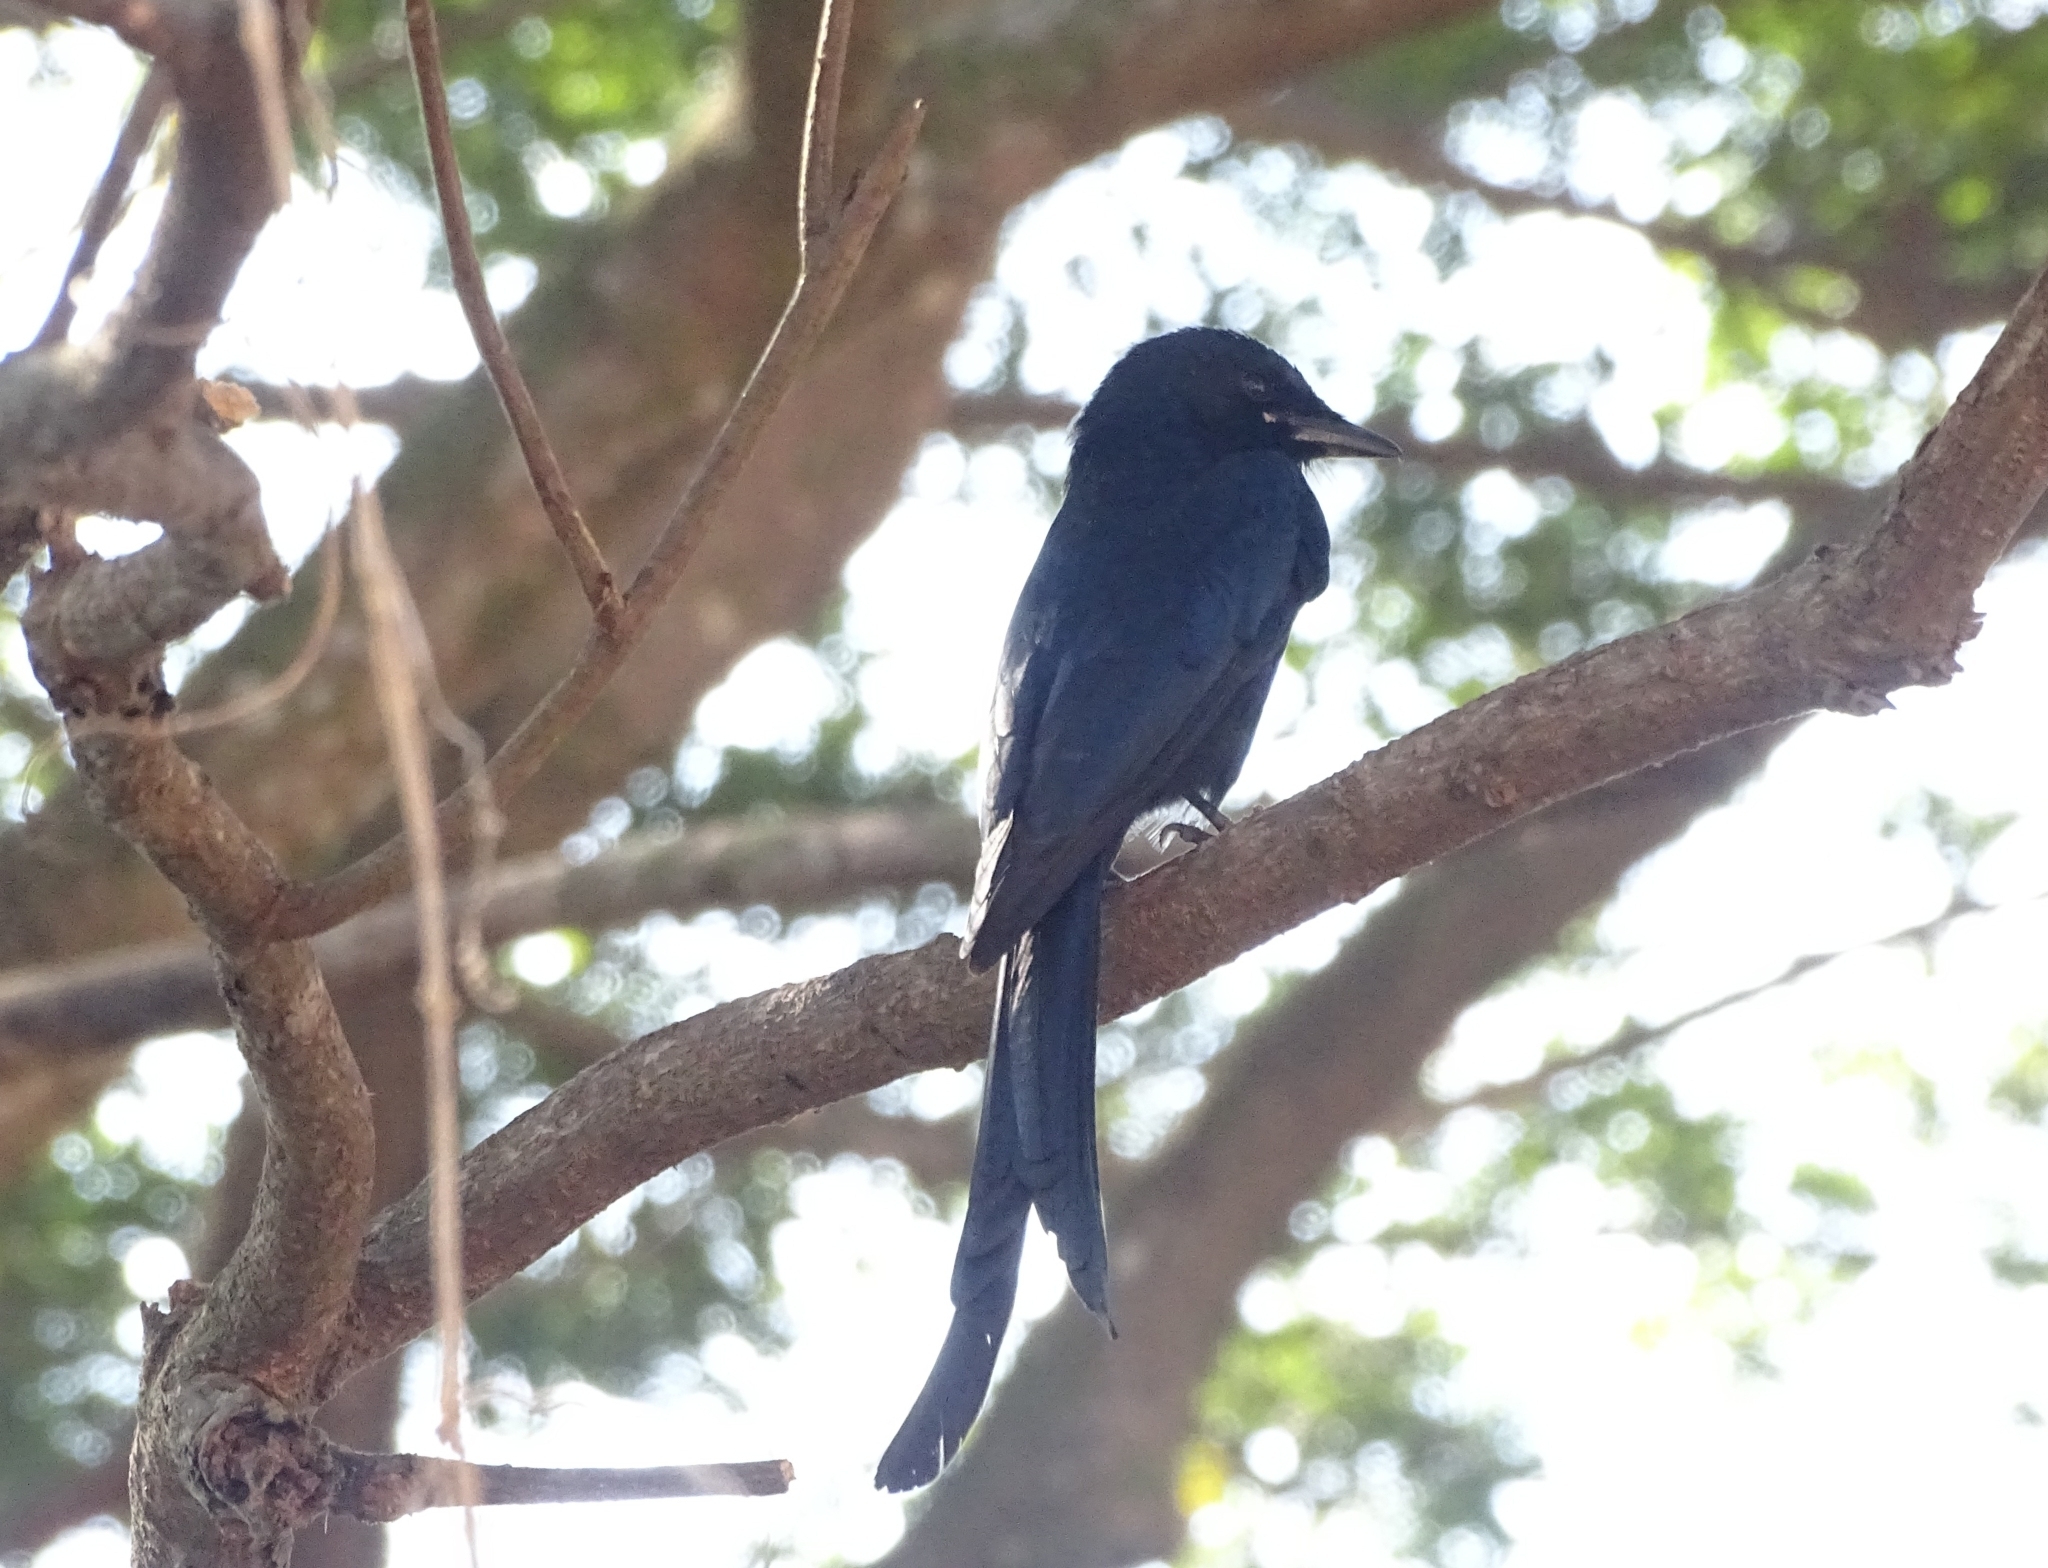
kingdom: Animalia
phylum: Chordata
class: Aves
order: Passeriformes
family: Dicruridae
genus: Dicrurus
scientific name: Dicrurus macrocercus
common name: Black drongo
